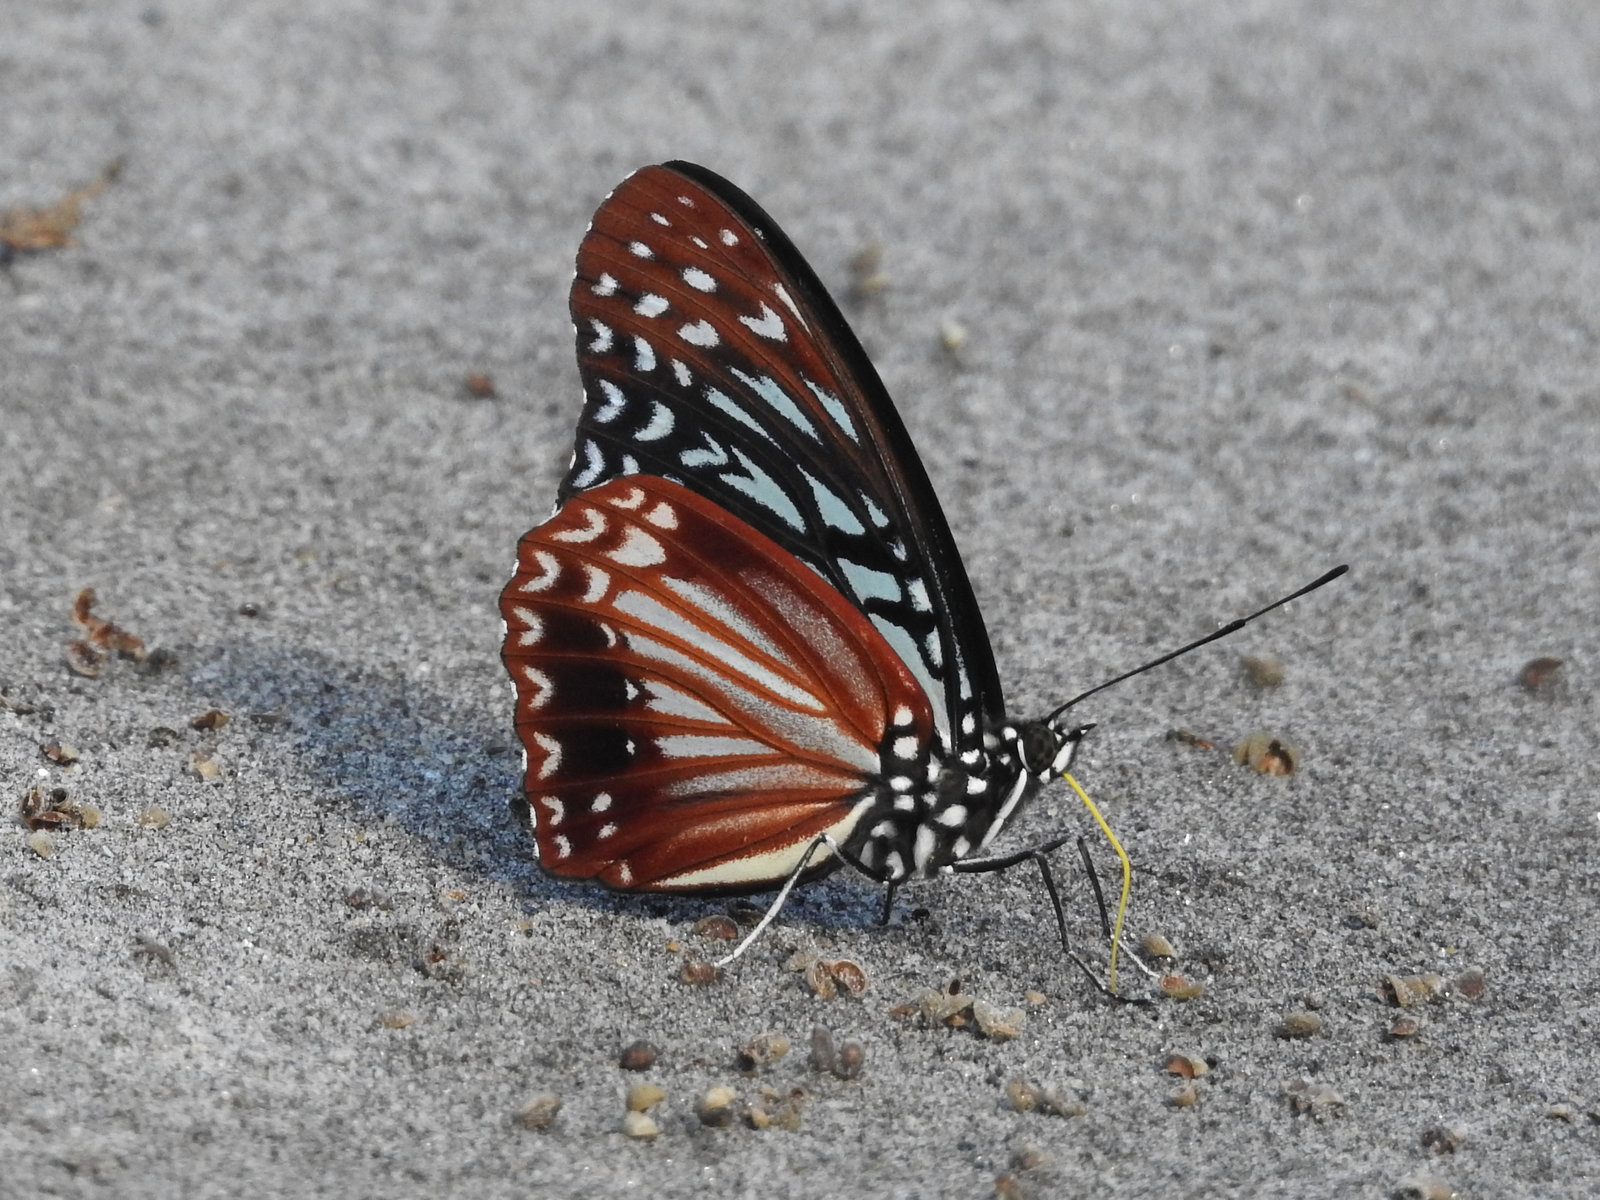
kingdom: Animalia
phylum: Arthropoda
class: Insecta
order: Lepidoptera
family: Nymphalidae
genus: Hestinalis
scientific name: Hestinalis nama
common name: Circe
